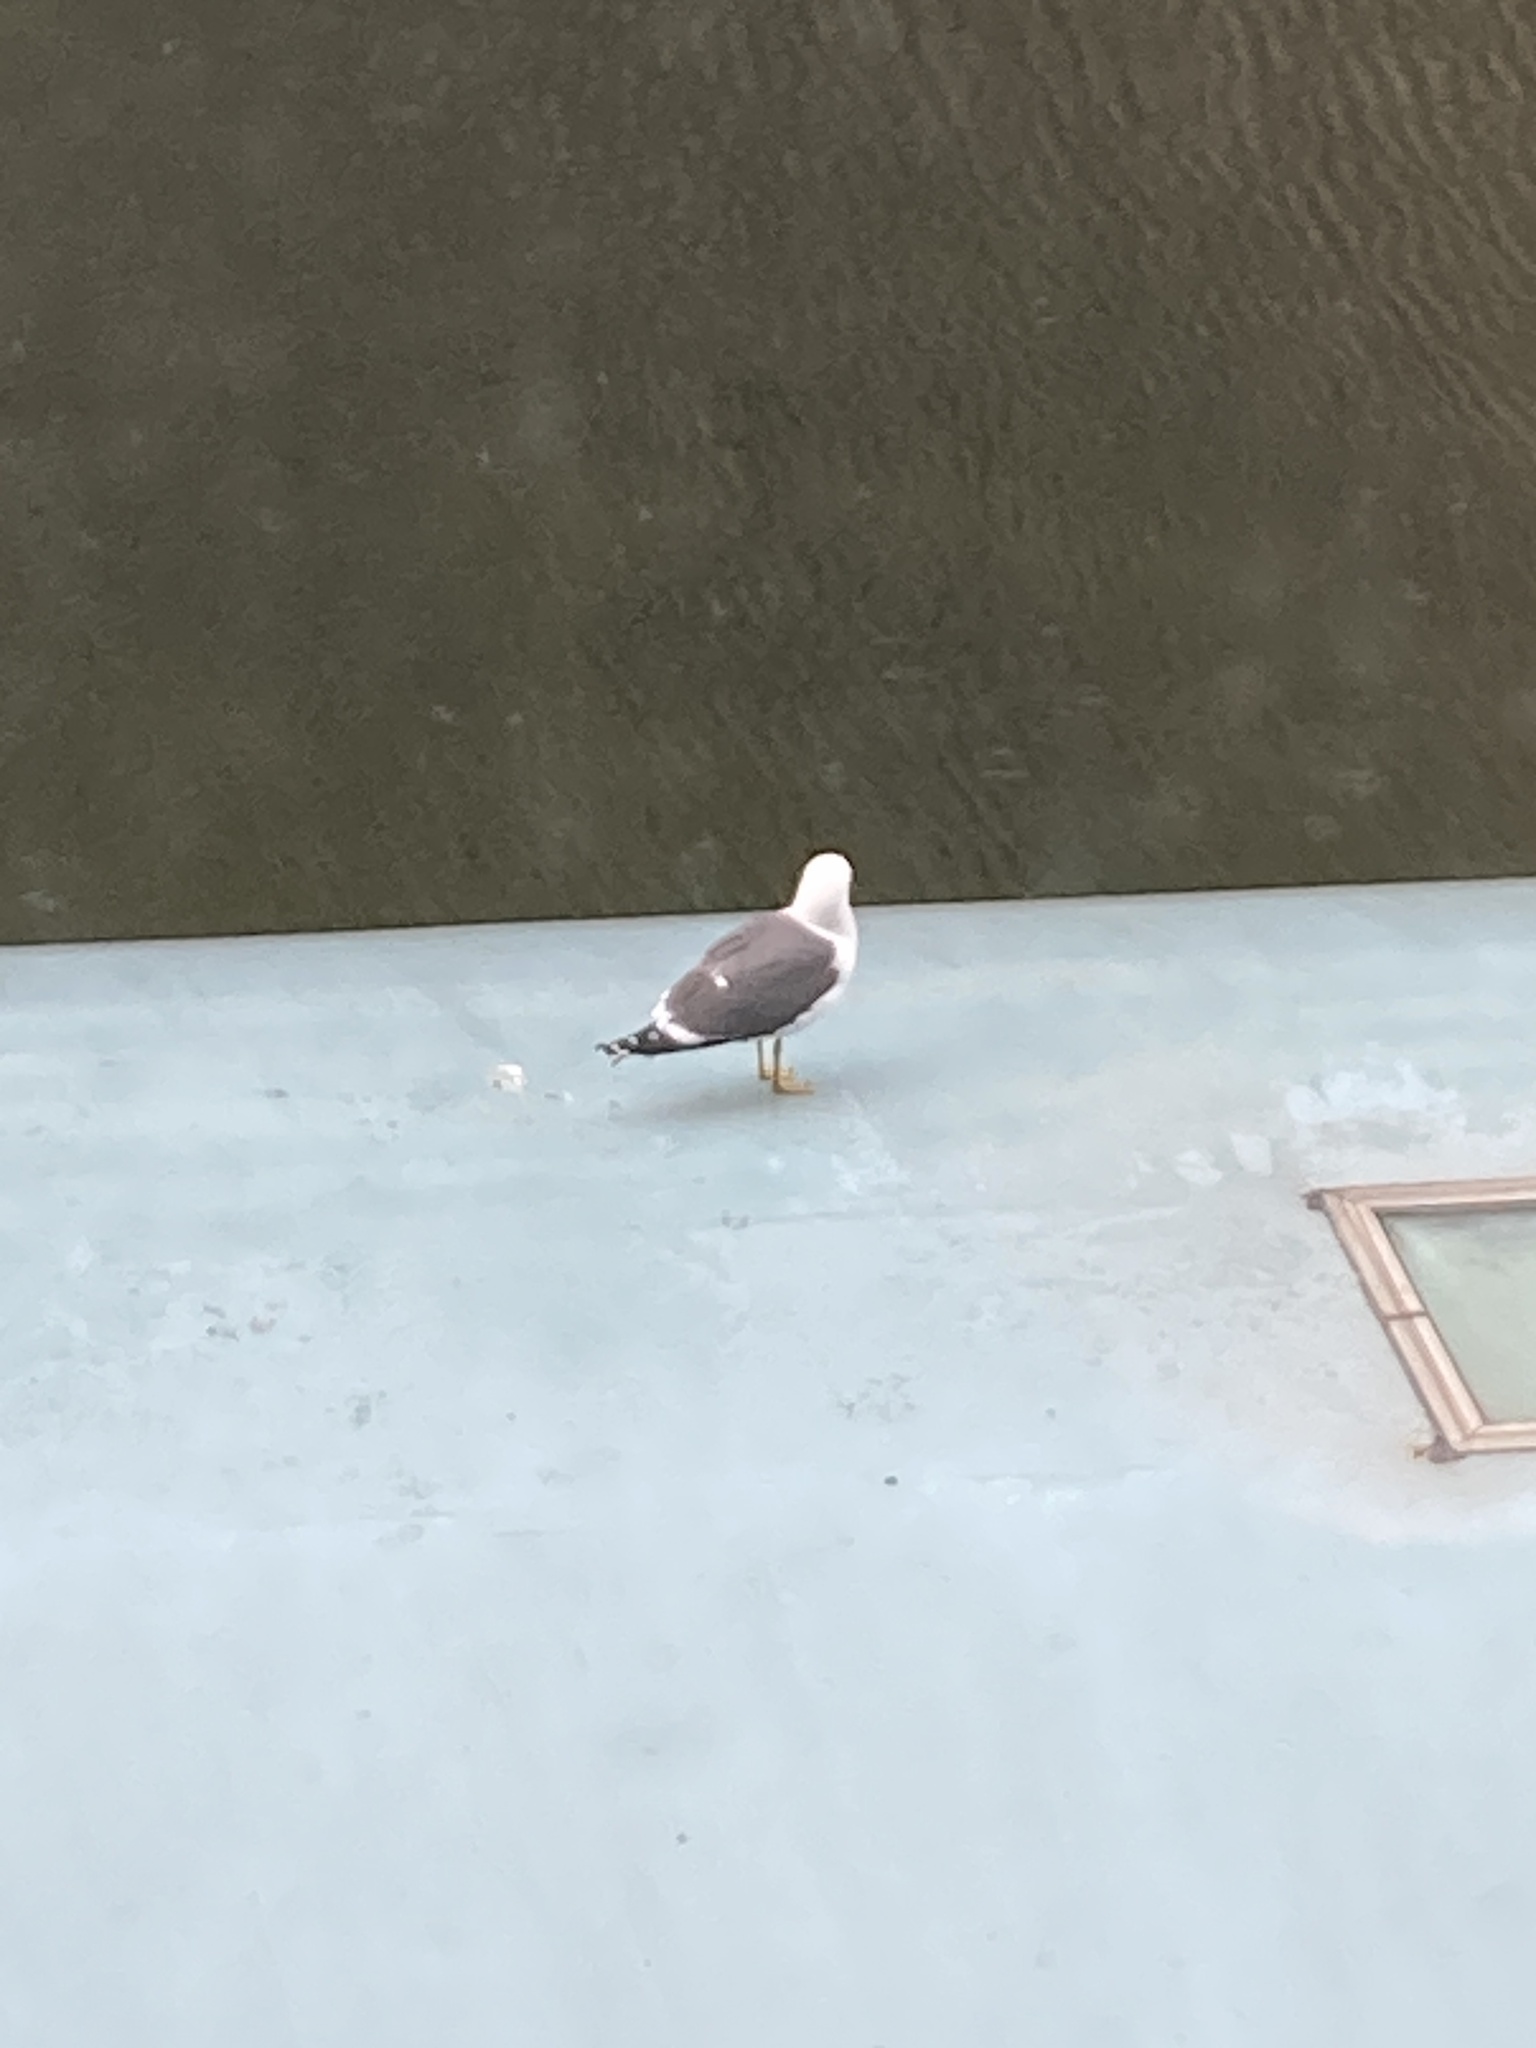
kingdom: Animalia
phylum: Chordata
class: Aves
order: Charadriiformes
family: Laridae
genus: Larus
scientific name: Larus fuscus
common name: Lesser black-backed gull
